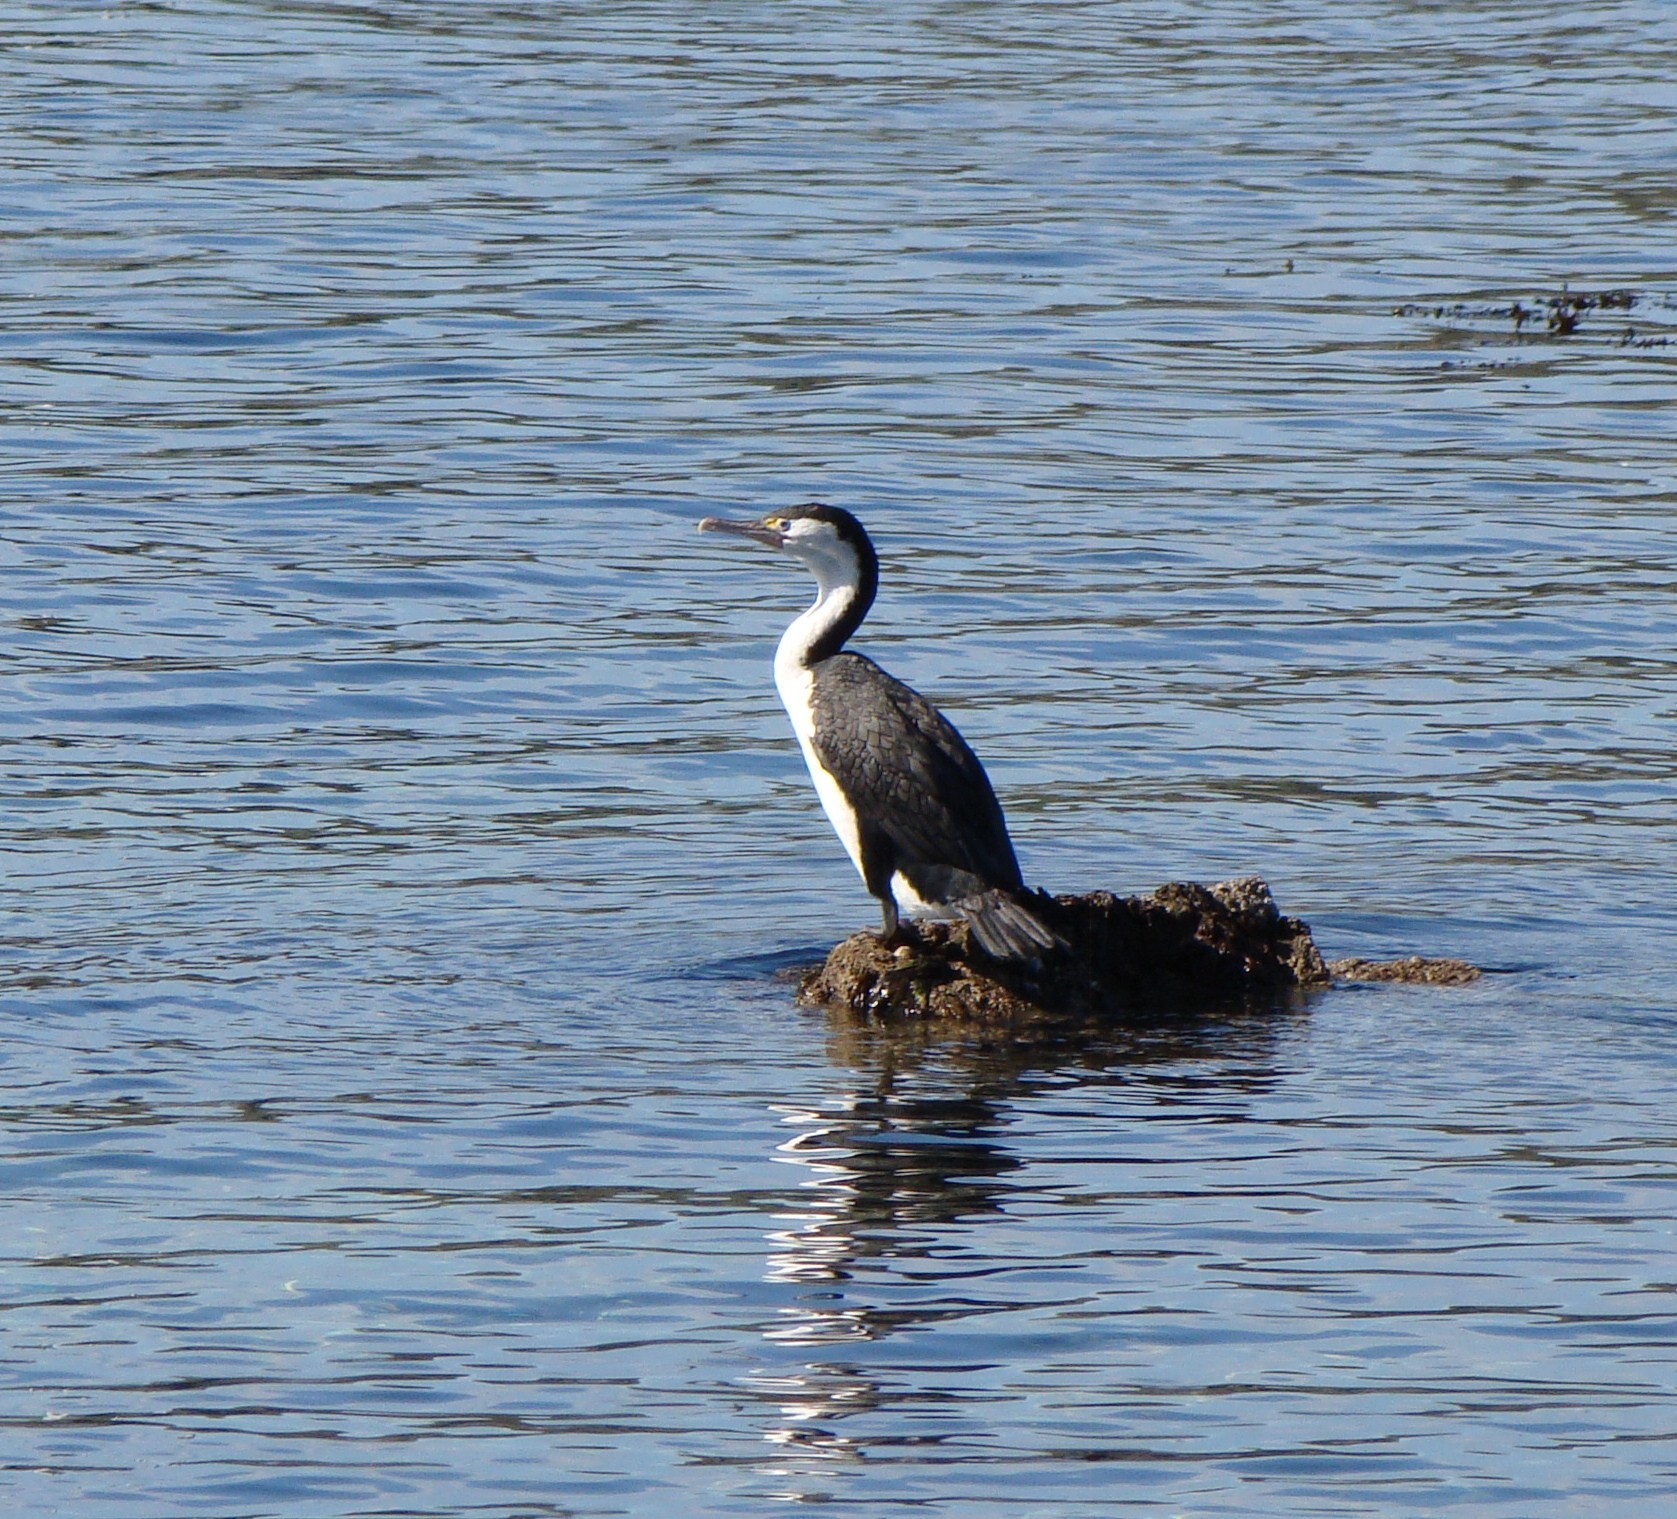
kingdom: Animalia
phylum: Chordata
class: Aves
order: Suliformes
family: Phalacrocoracidae
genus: Phalacrocorax
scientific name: Phalacrocorax varius
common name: Pied cormorant
